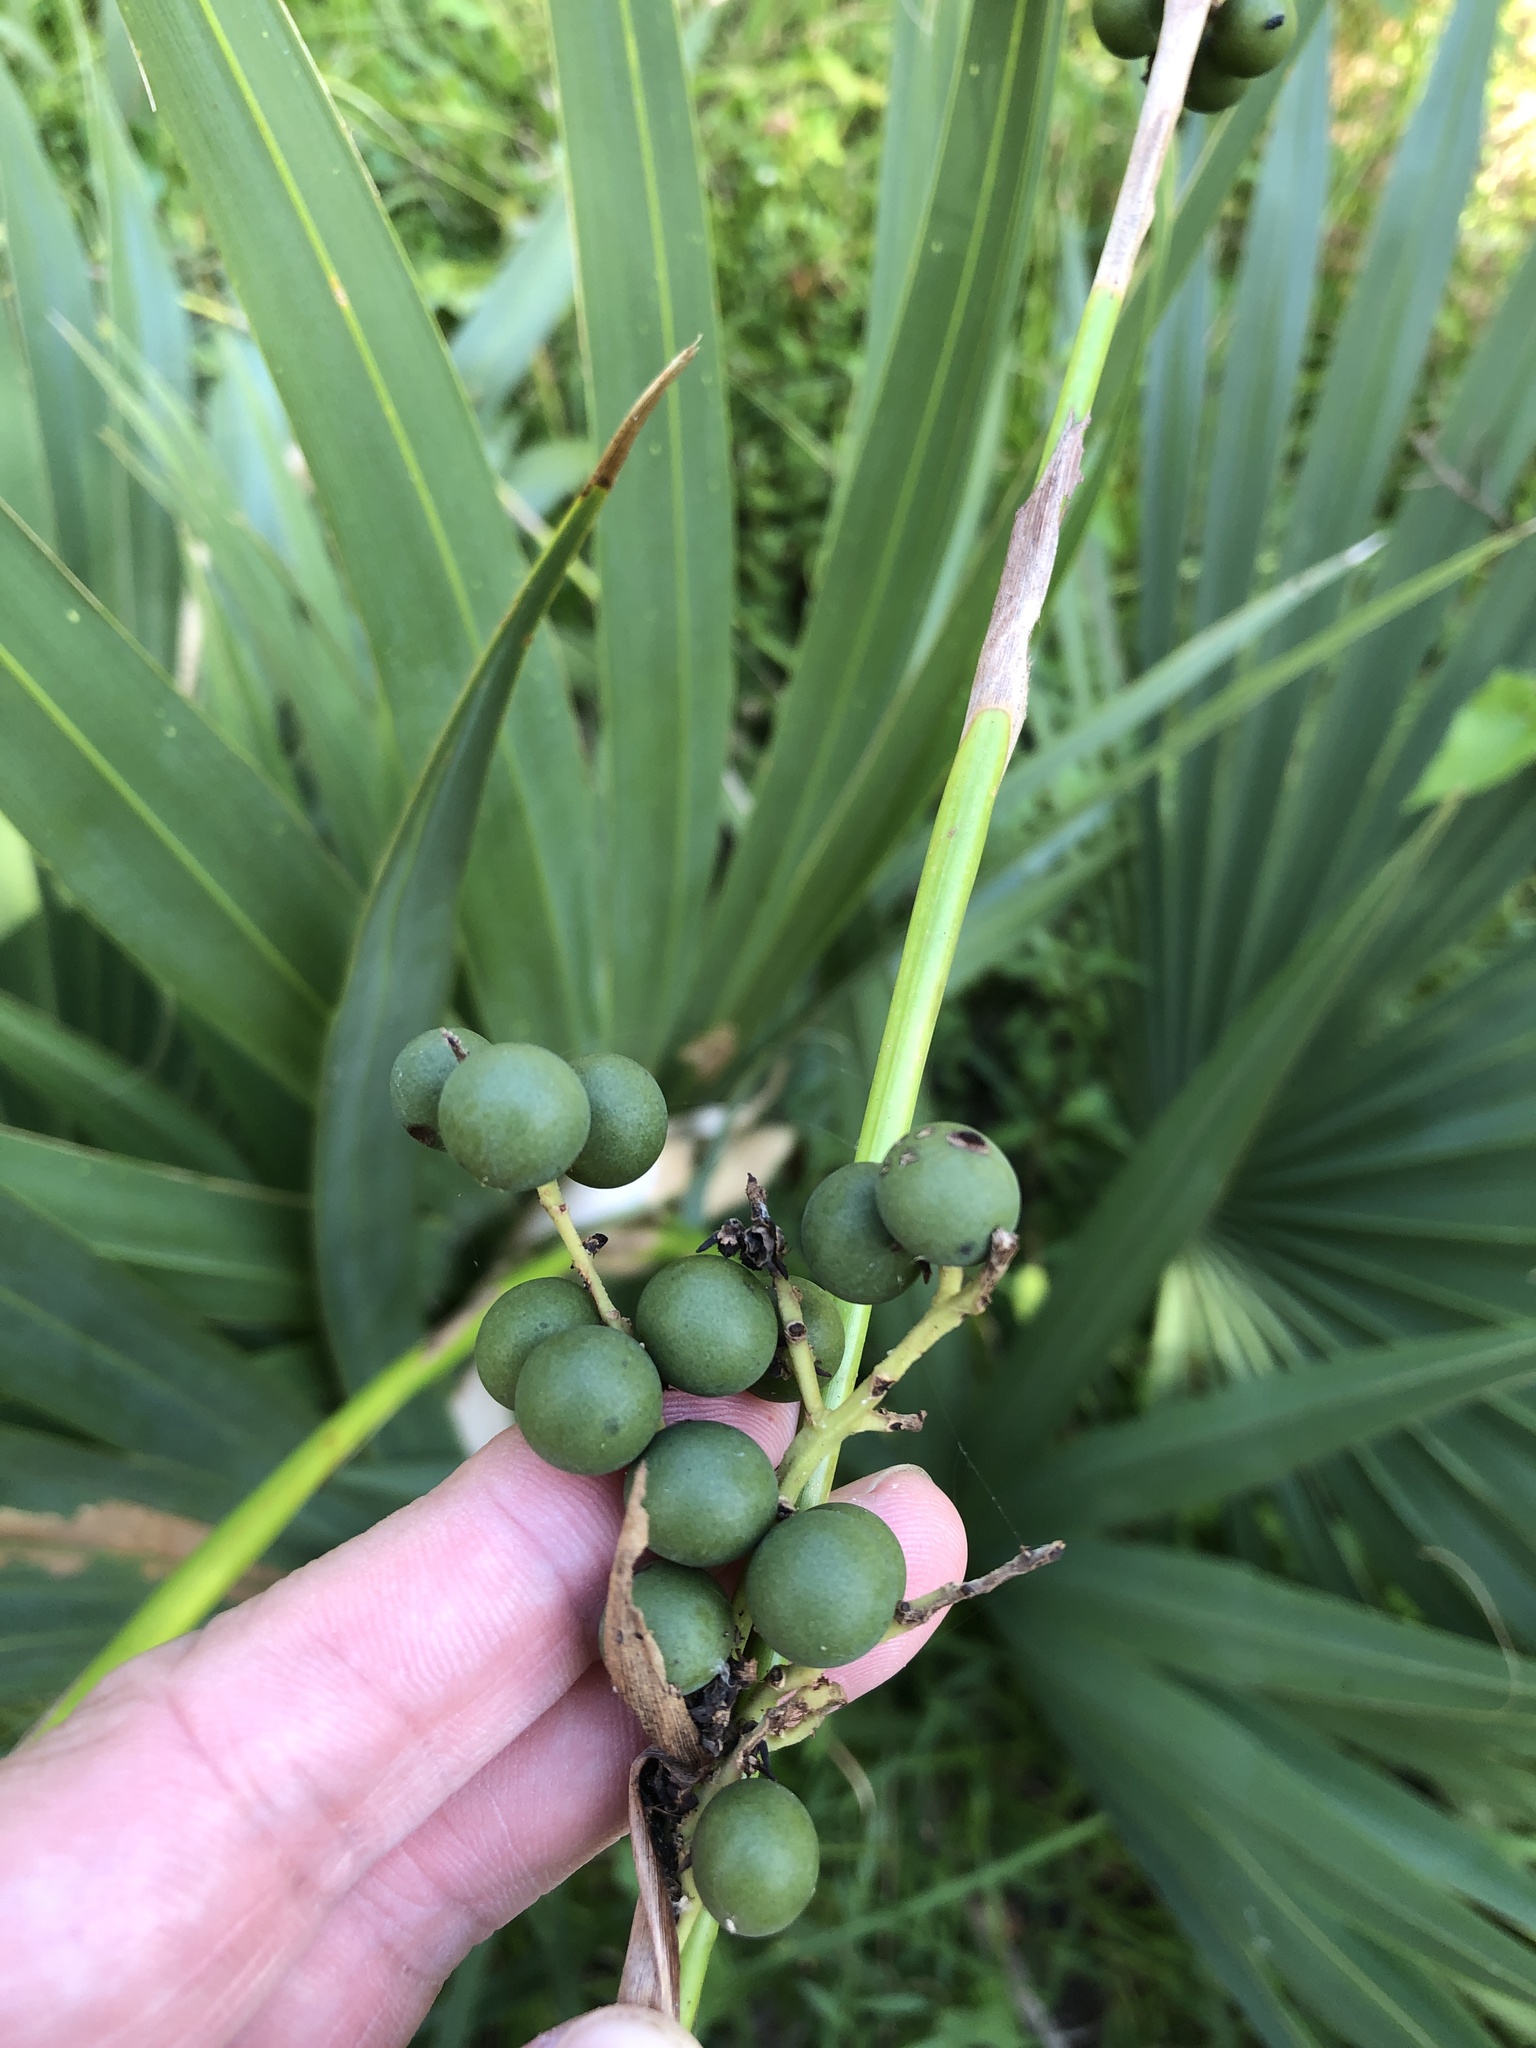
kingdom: Plantae
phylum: Tracheophyta
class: Liliopsida
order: Arecales
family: Arecaceae
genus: Sabal
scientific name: Sabal minor
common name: Dwarf palmetto
